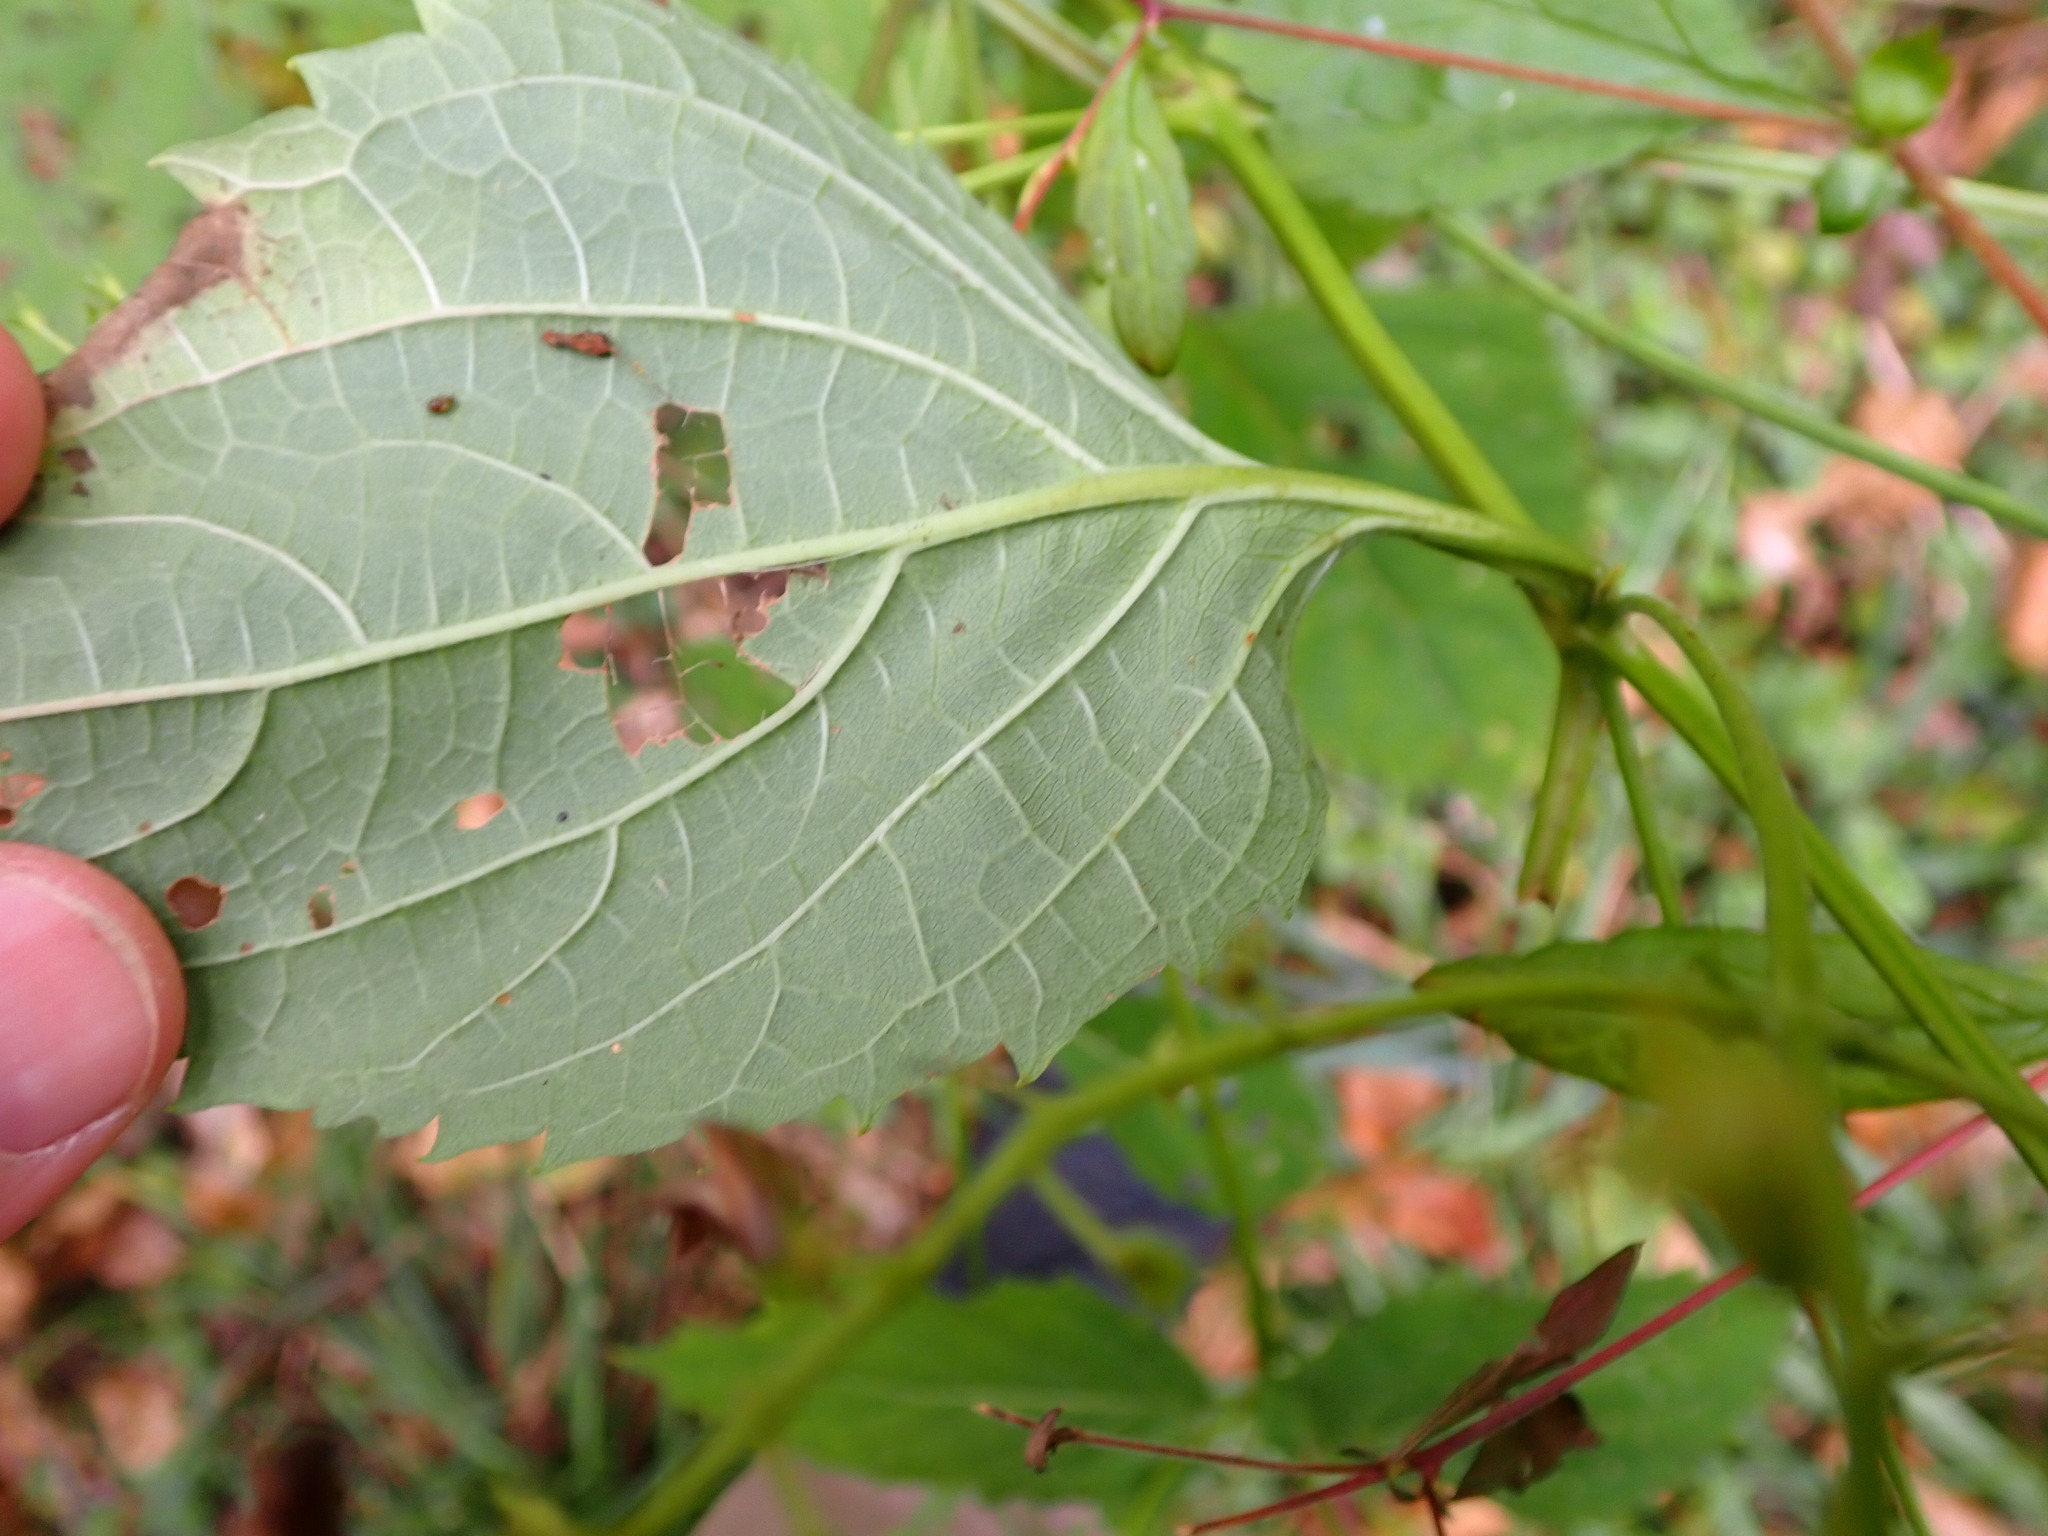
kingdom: Plantae
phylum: Tracheophyta
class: Magnoliopsida
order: Lamiales
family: Lamiaceae
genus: Collinsonia
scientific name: Collinsonia canadensis
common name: Northern horsebalm
